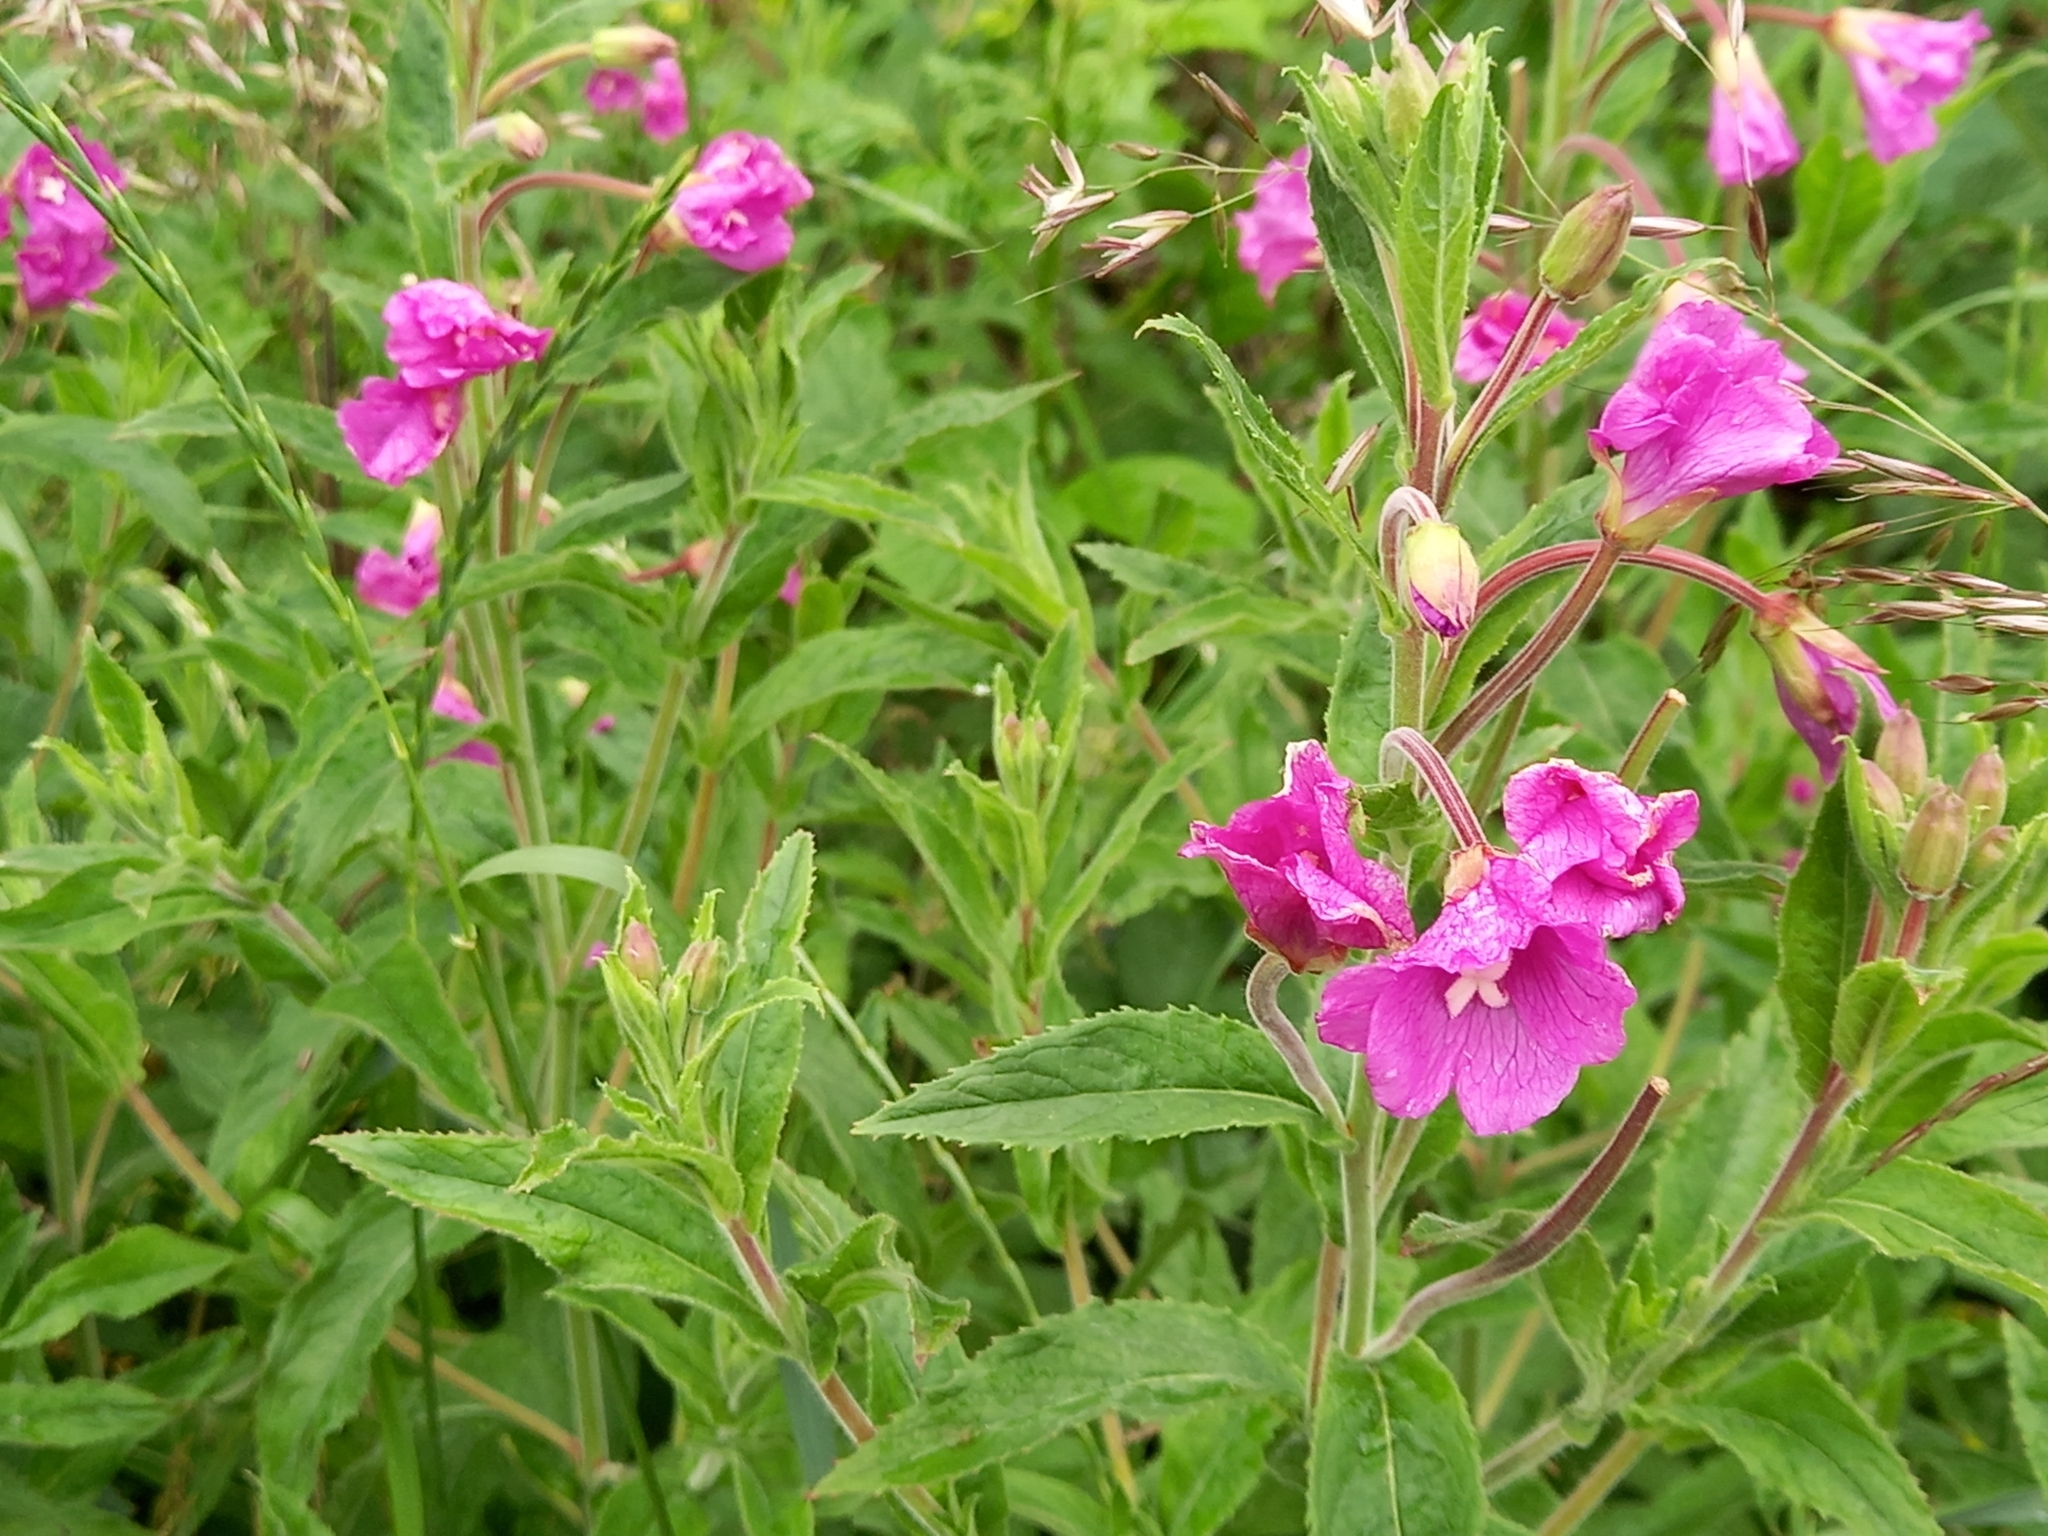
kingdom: Plantae
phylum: Tracheophyta
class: Magnoliopsida
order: Myrtales
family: Onagraceae
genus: Epilobium
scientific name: Epilobium hirsutum
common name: Great willowherb
